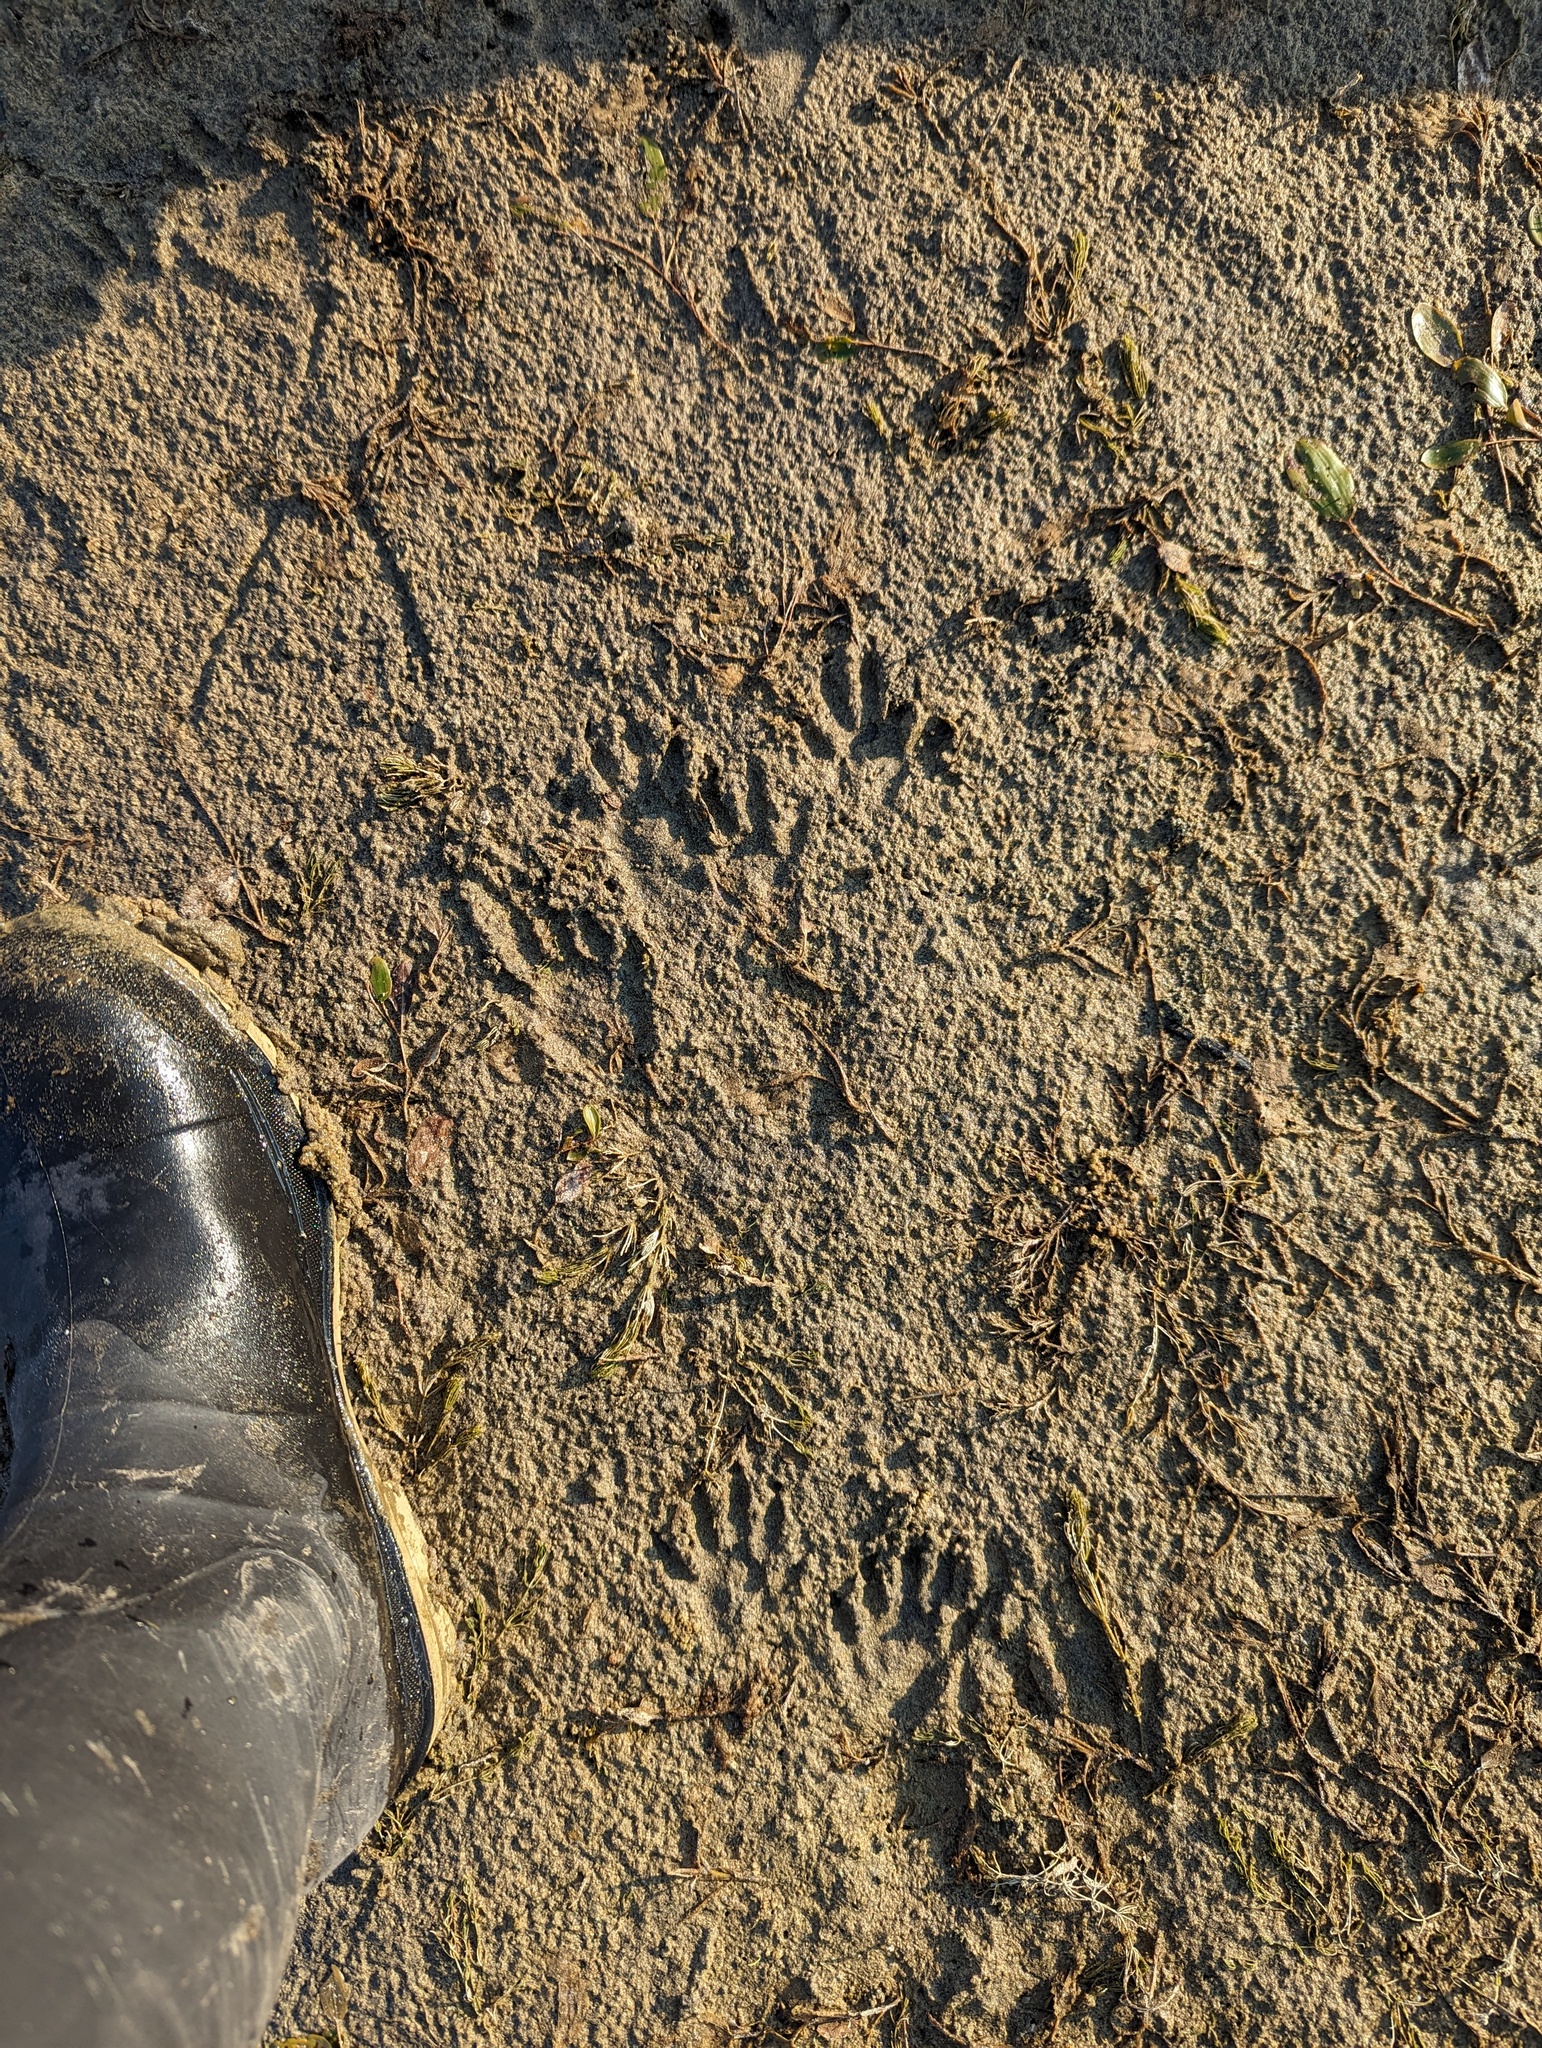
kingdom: Animalia
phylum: Chordata
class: Mammalia
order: Carnivora
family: Procyonidae
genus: Procyon
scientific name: Procyon lotor
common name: Raccoon
